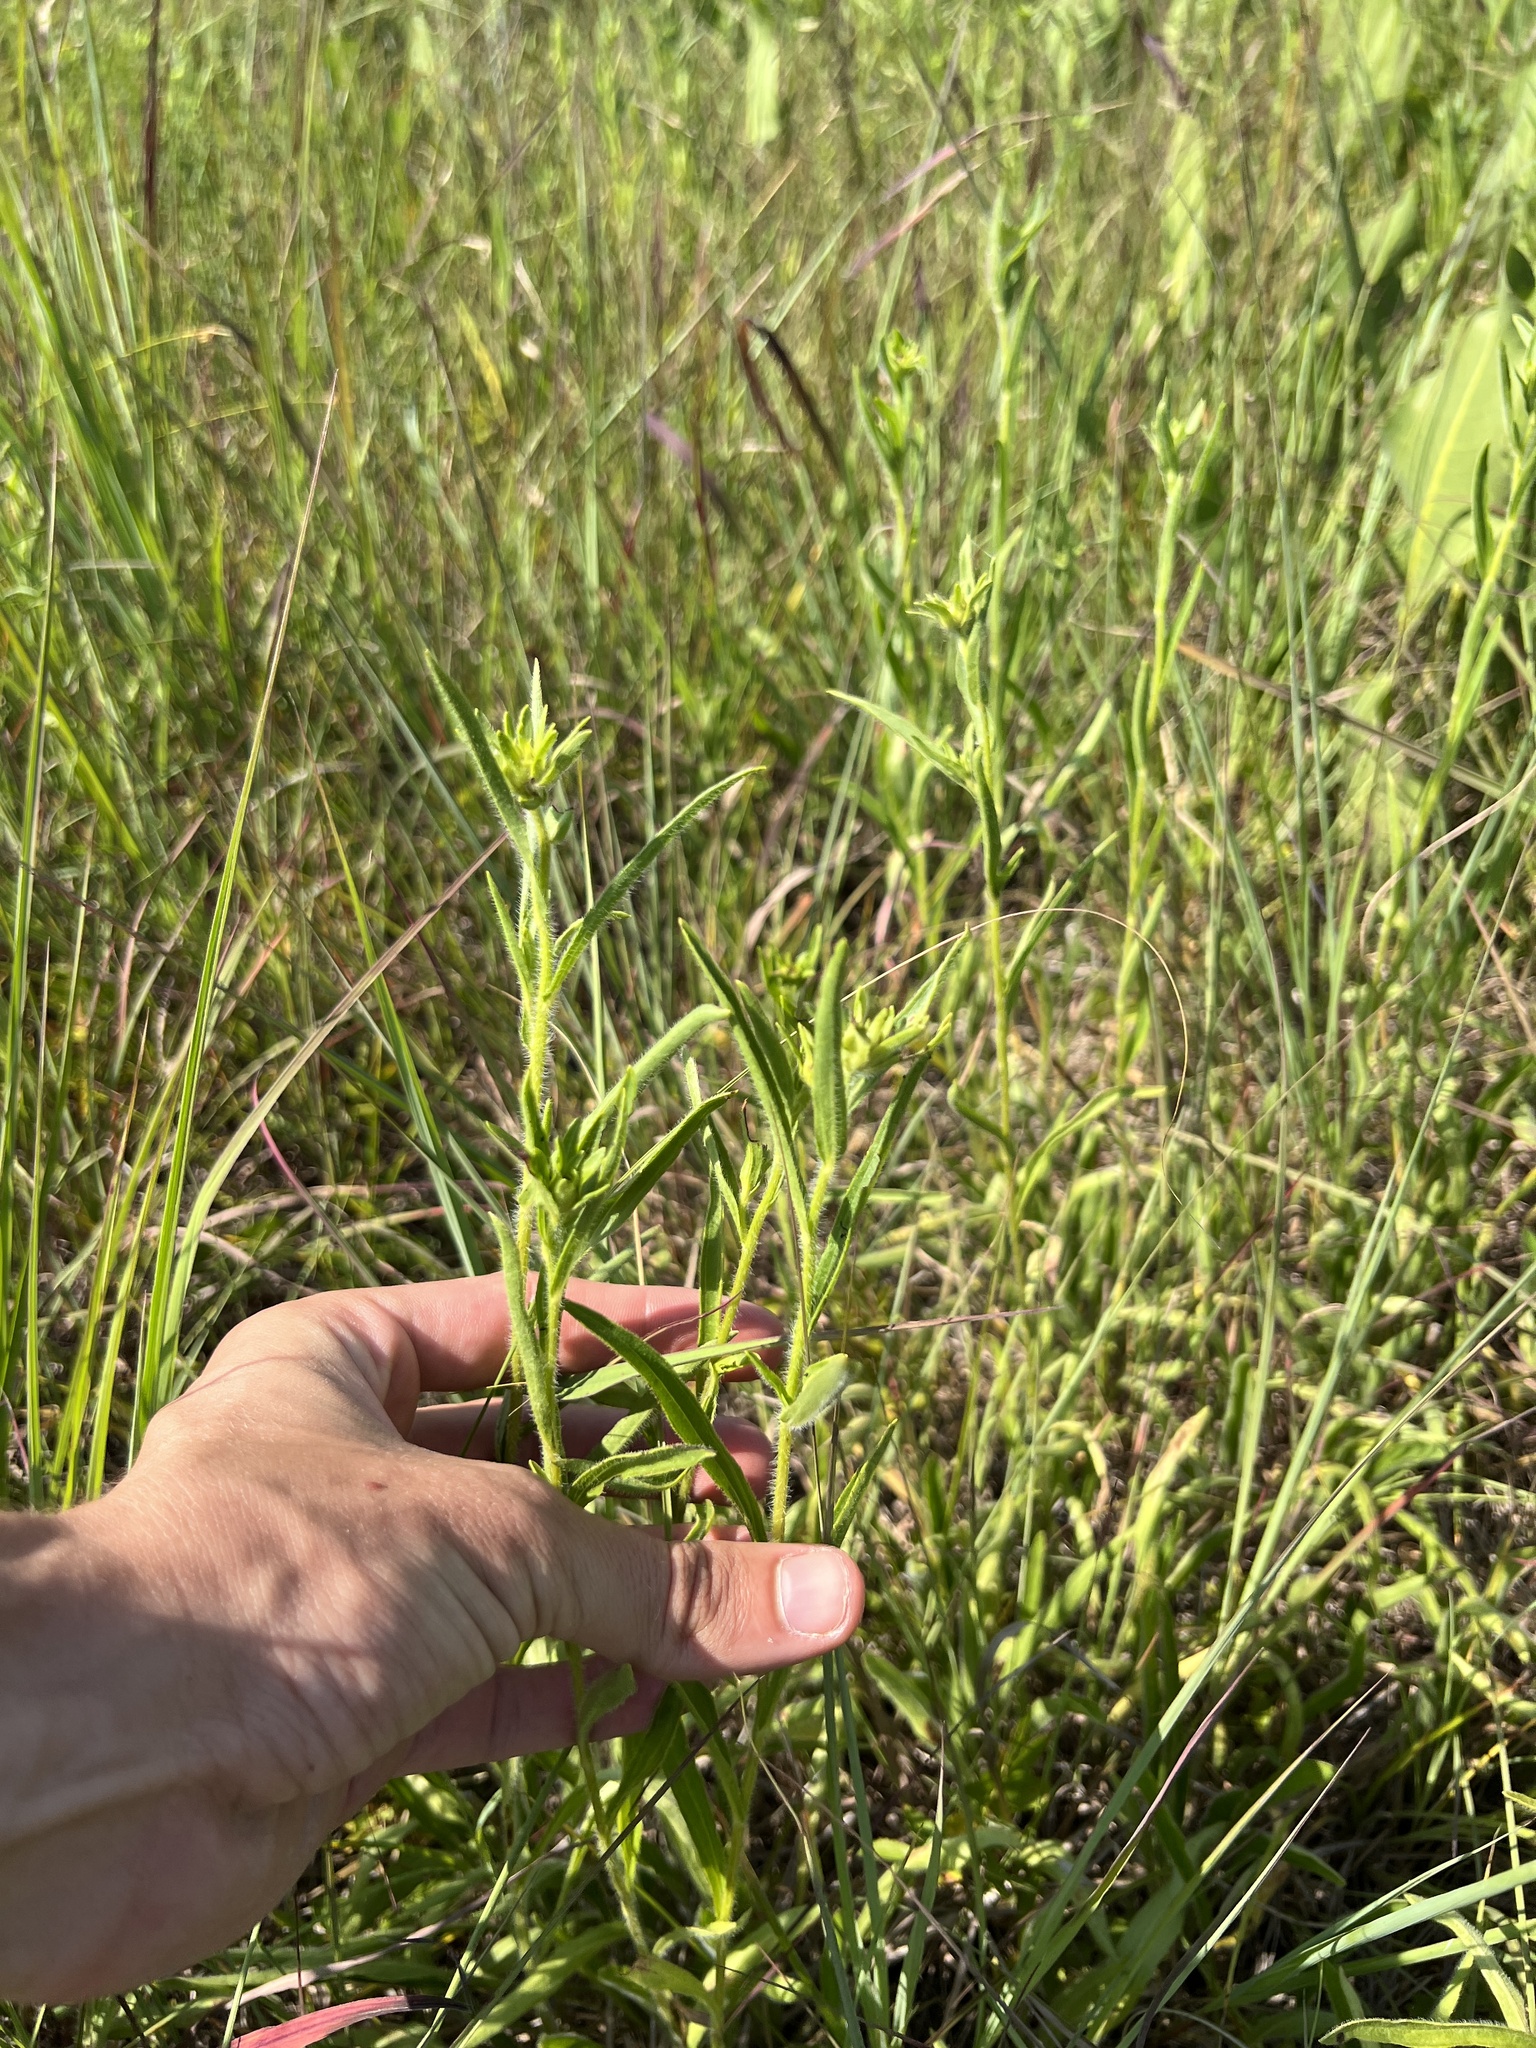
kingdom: Plantae
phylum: Tracheophyta
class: Magnoliopsida
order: Asterales
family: Asteraceae
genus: Rudbeckia
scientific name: Rudbeckia missouriensis
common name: Missouri coneflower
